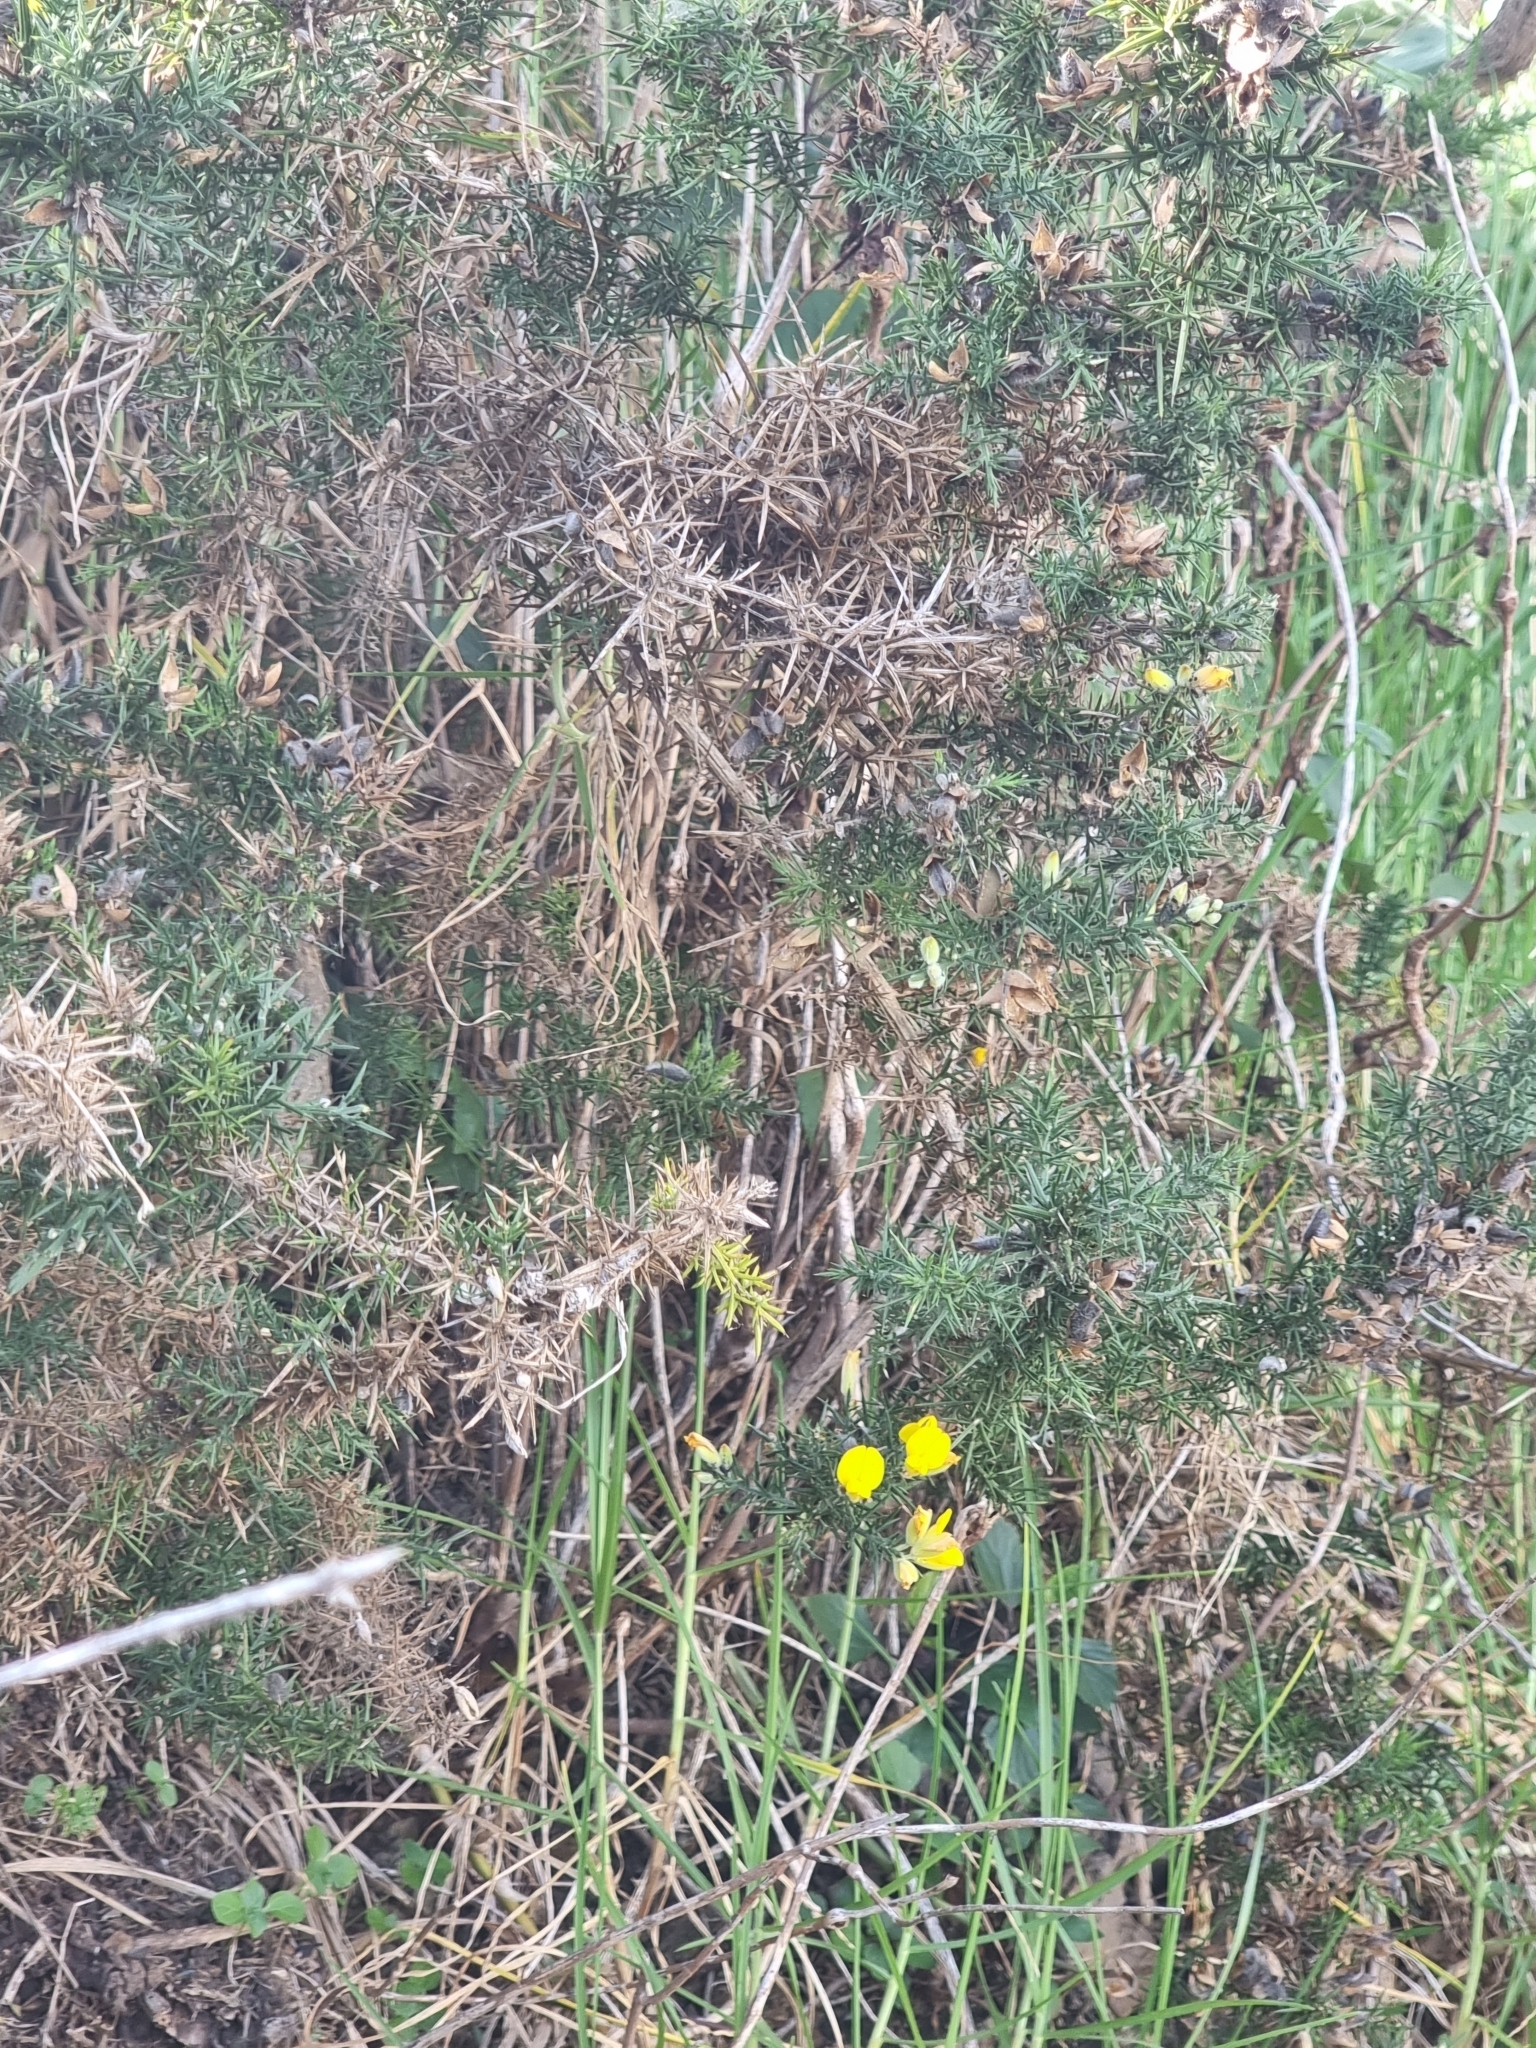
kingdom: Plantae
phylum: Tracheophyta
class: Magnoliopsida
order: Fabales
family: Fabaceae
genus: Ulex
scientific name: Ulex europaeus
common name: Common gorse
